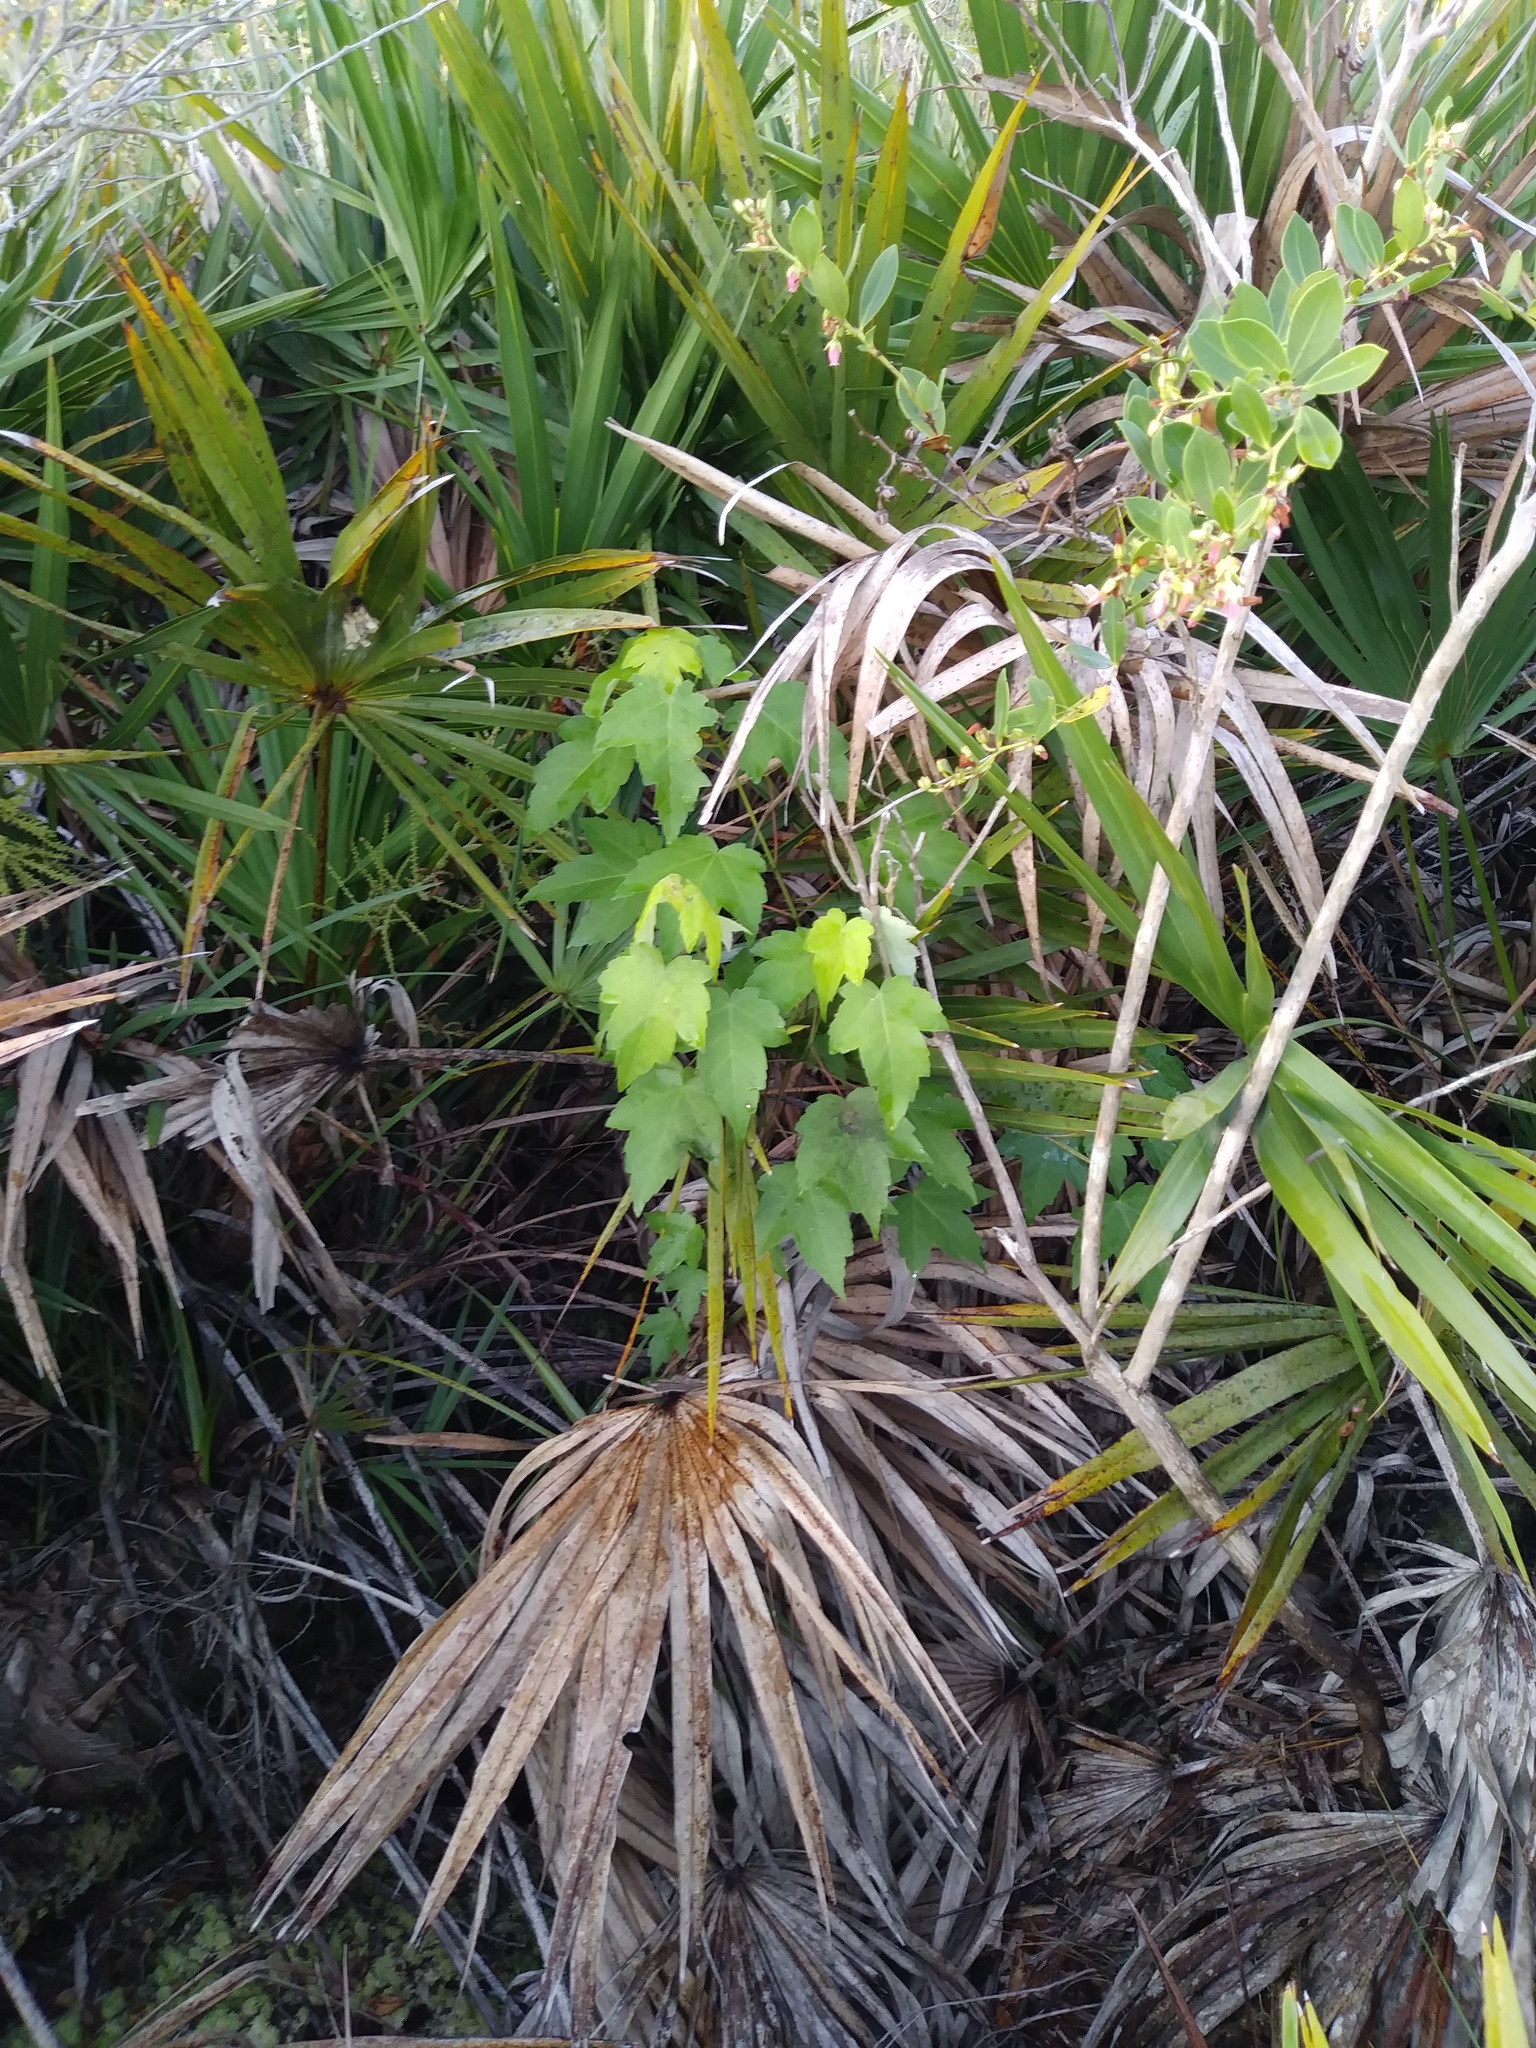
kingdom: Plantae
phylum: Tracheophyta
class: Magnoliopsida
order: Sapindales
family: Sapindaceae
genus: Acer
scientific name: Acer rubrum
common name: Red maple
